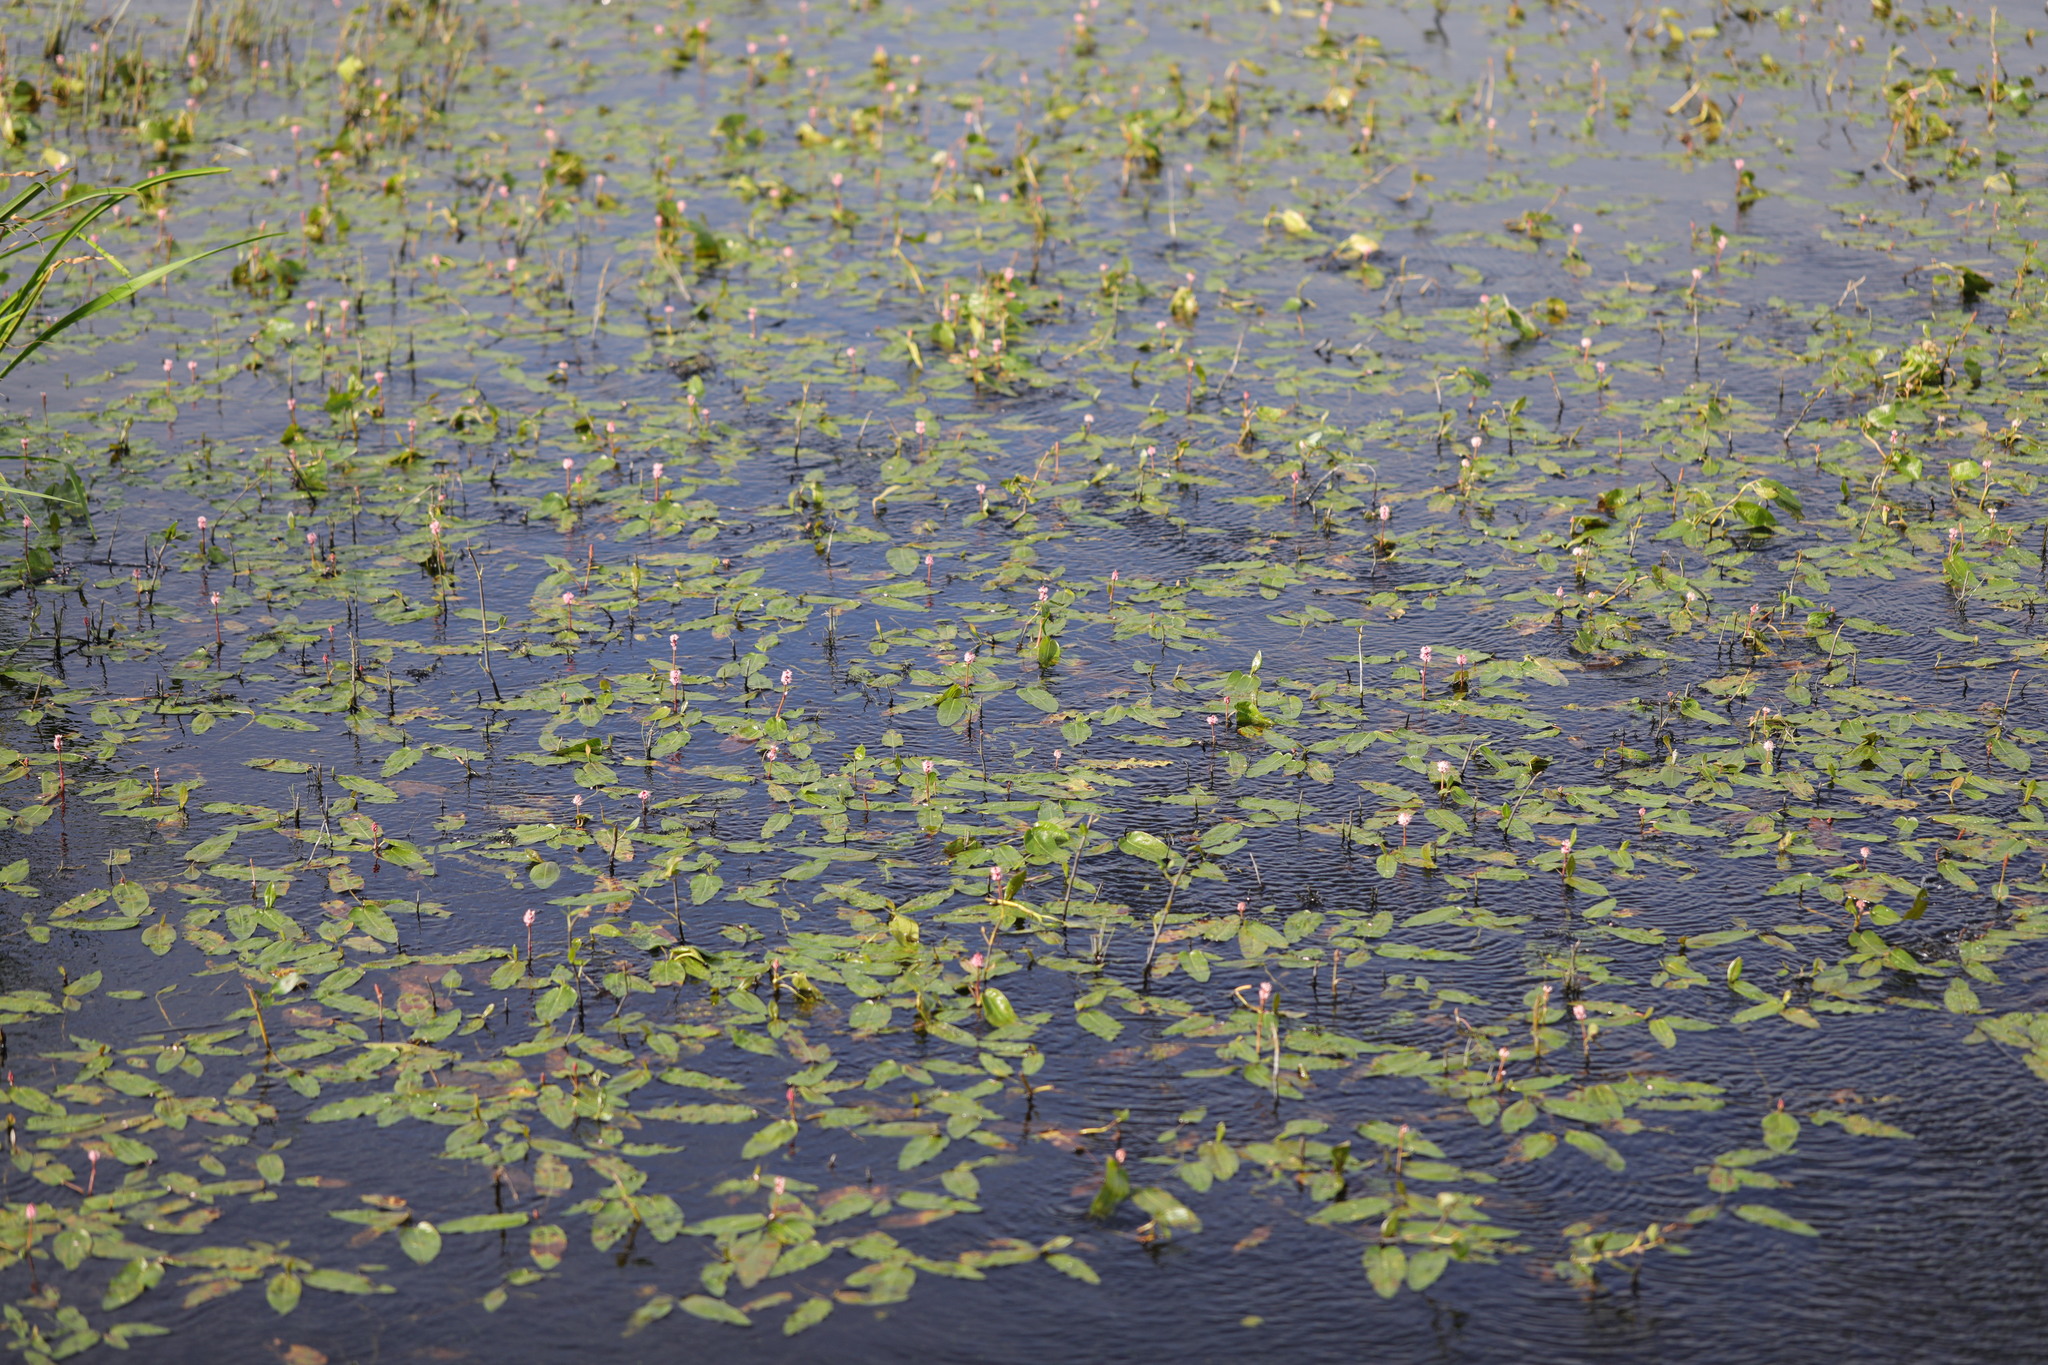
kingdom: Plantae
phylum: Tracheophyta
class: Magnoliopsida
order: Caryophyllales
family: Polygonaceae
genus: Persicaria
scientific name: Persicaria amphibia
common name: Amphibious bistort
